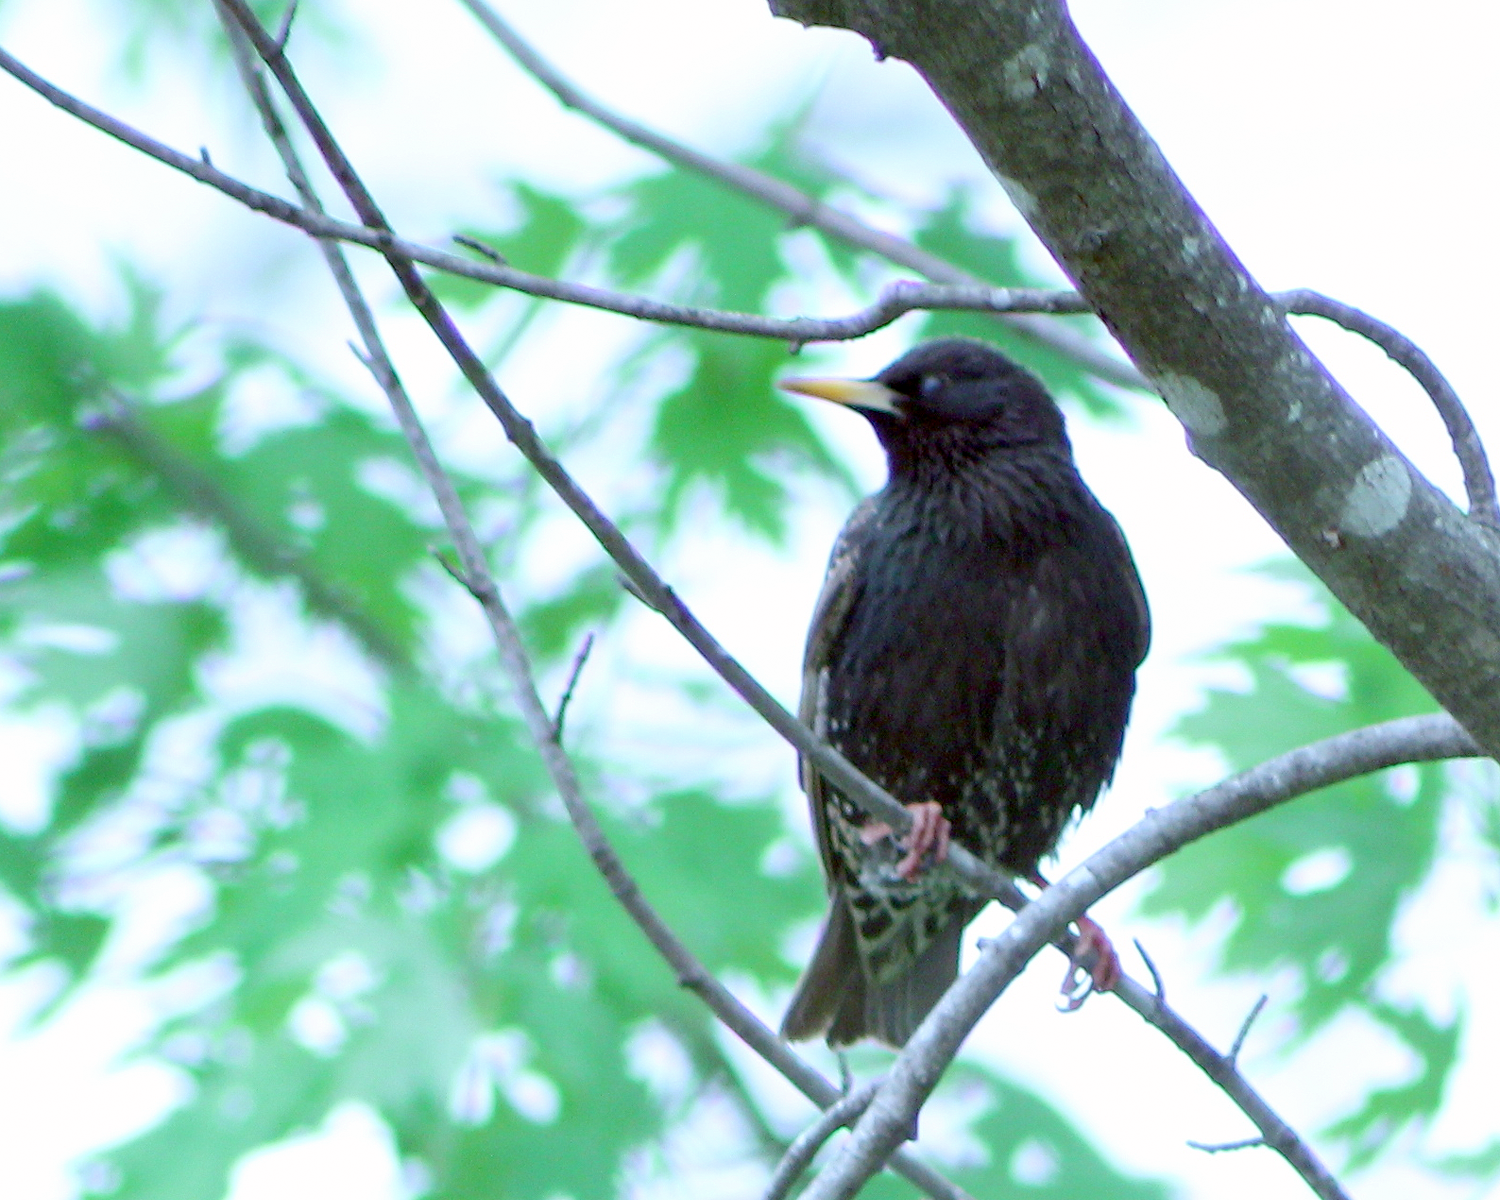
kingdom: Animalia
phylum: Chordata
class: Aves
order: Passeriformes
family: Sturnidae
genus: Sturnus
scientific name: Sturnus vulgaris
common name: Common starling
